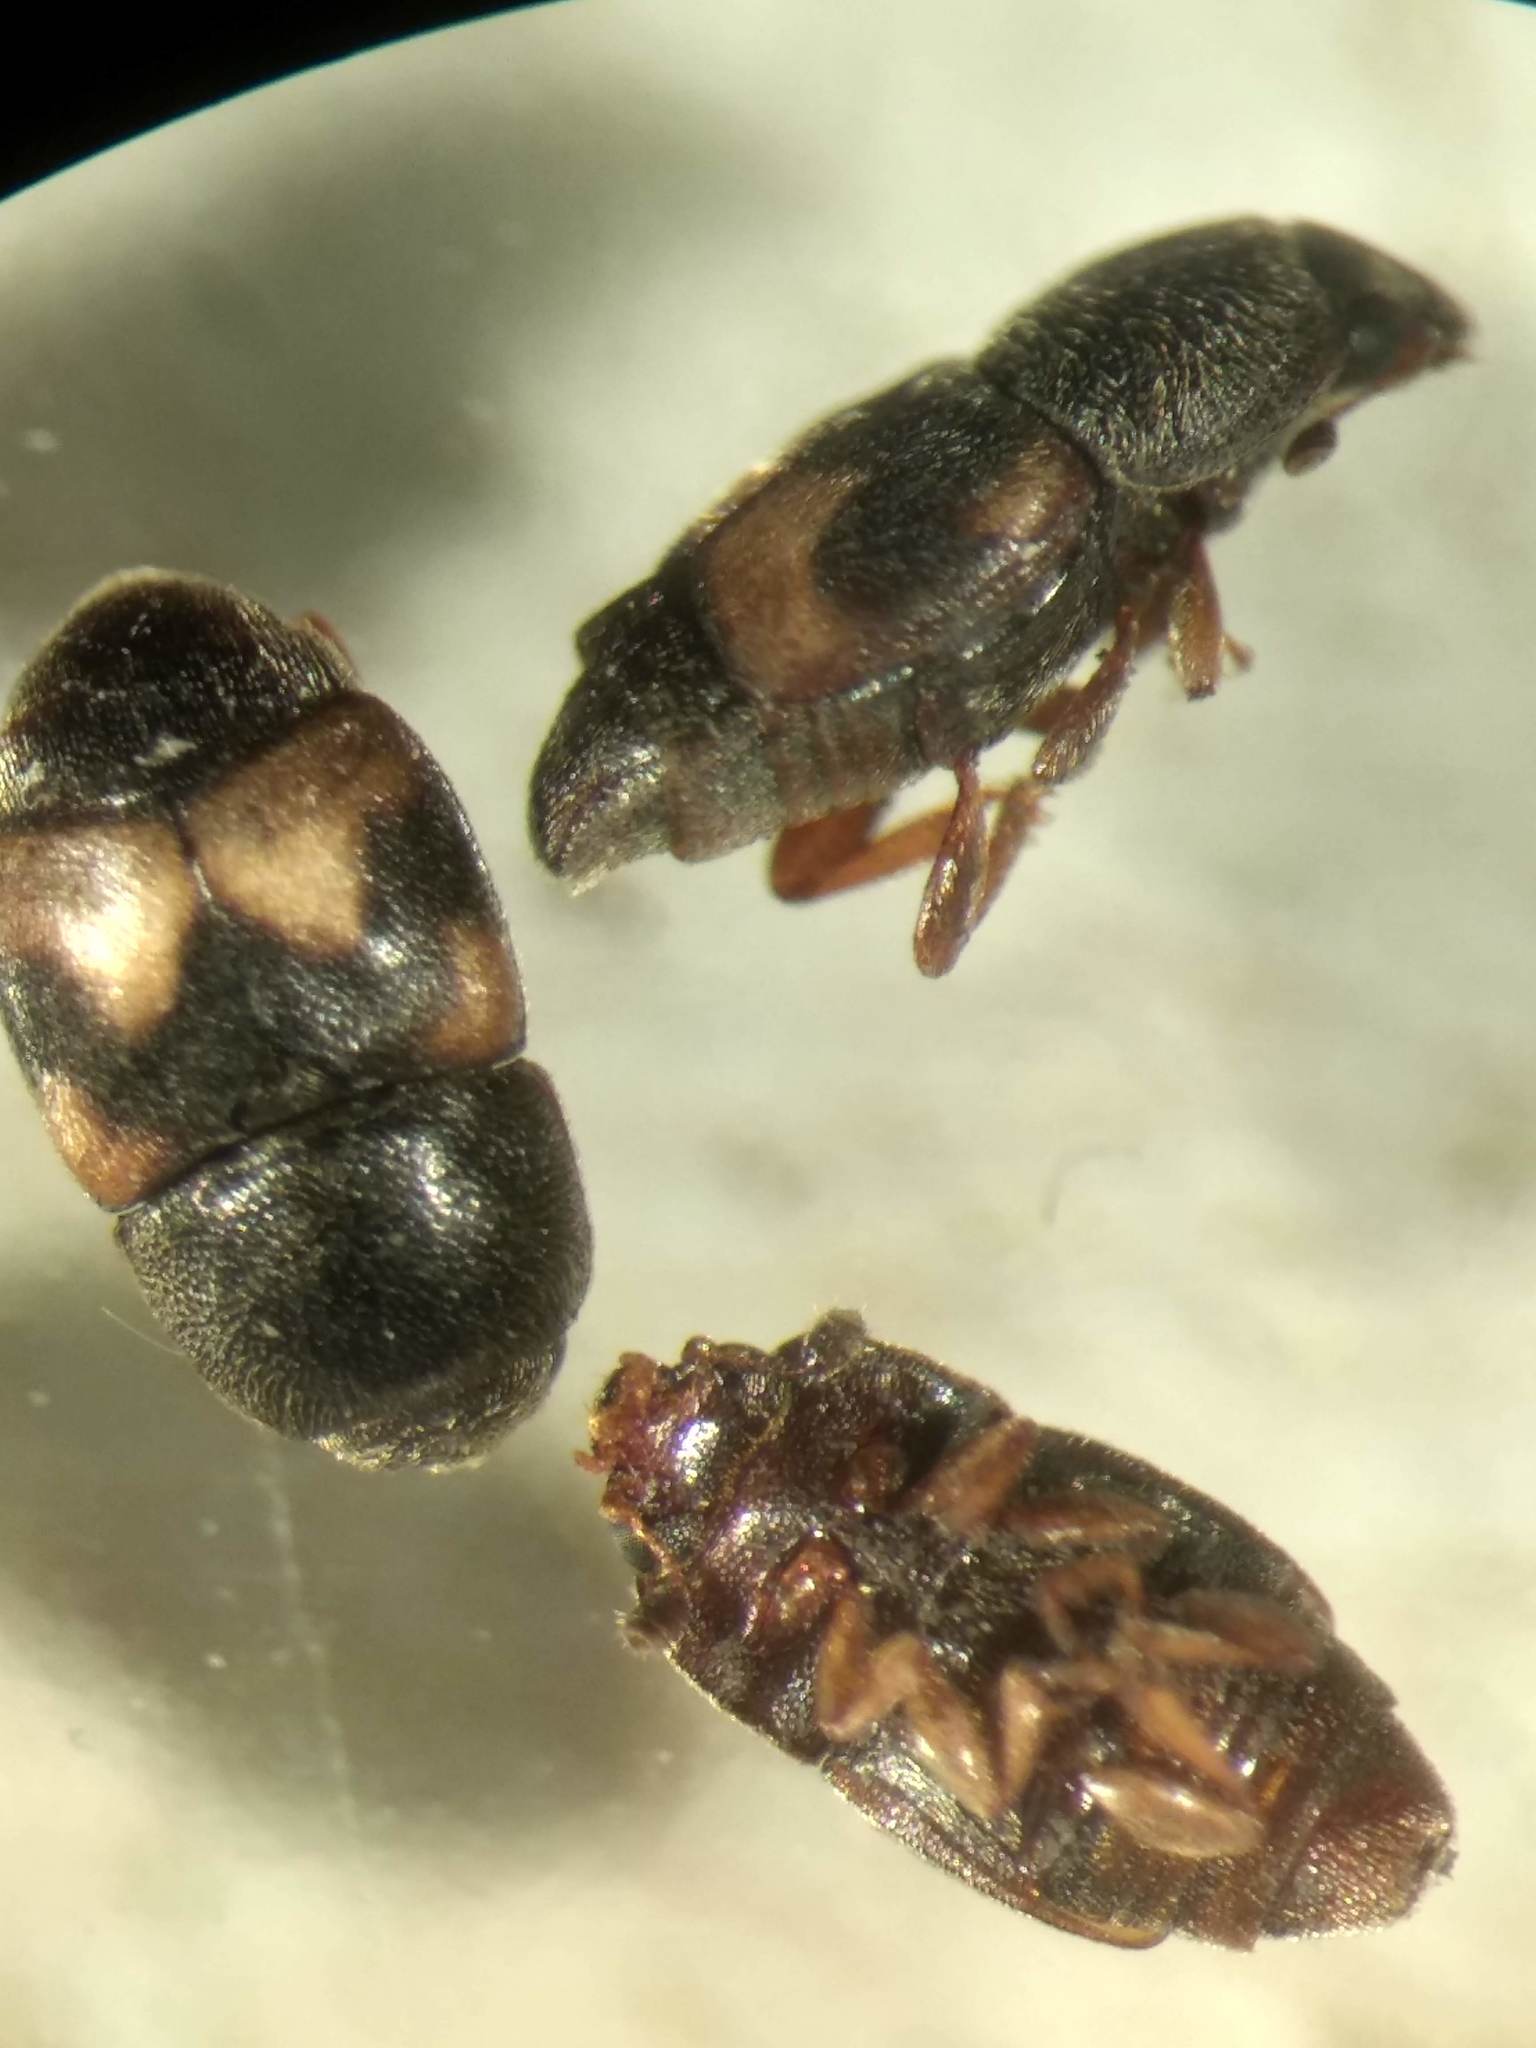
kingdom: Animalia
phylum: Arthropoda
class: Insecta
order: Coleoptera
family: Nitidulidae
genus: Carpophilus
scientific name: Carpophilus hemipterus
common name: Dried fruit beetle
